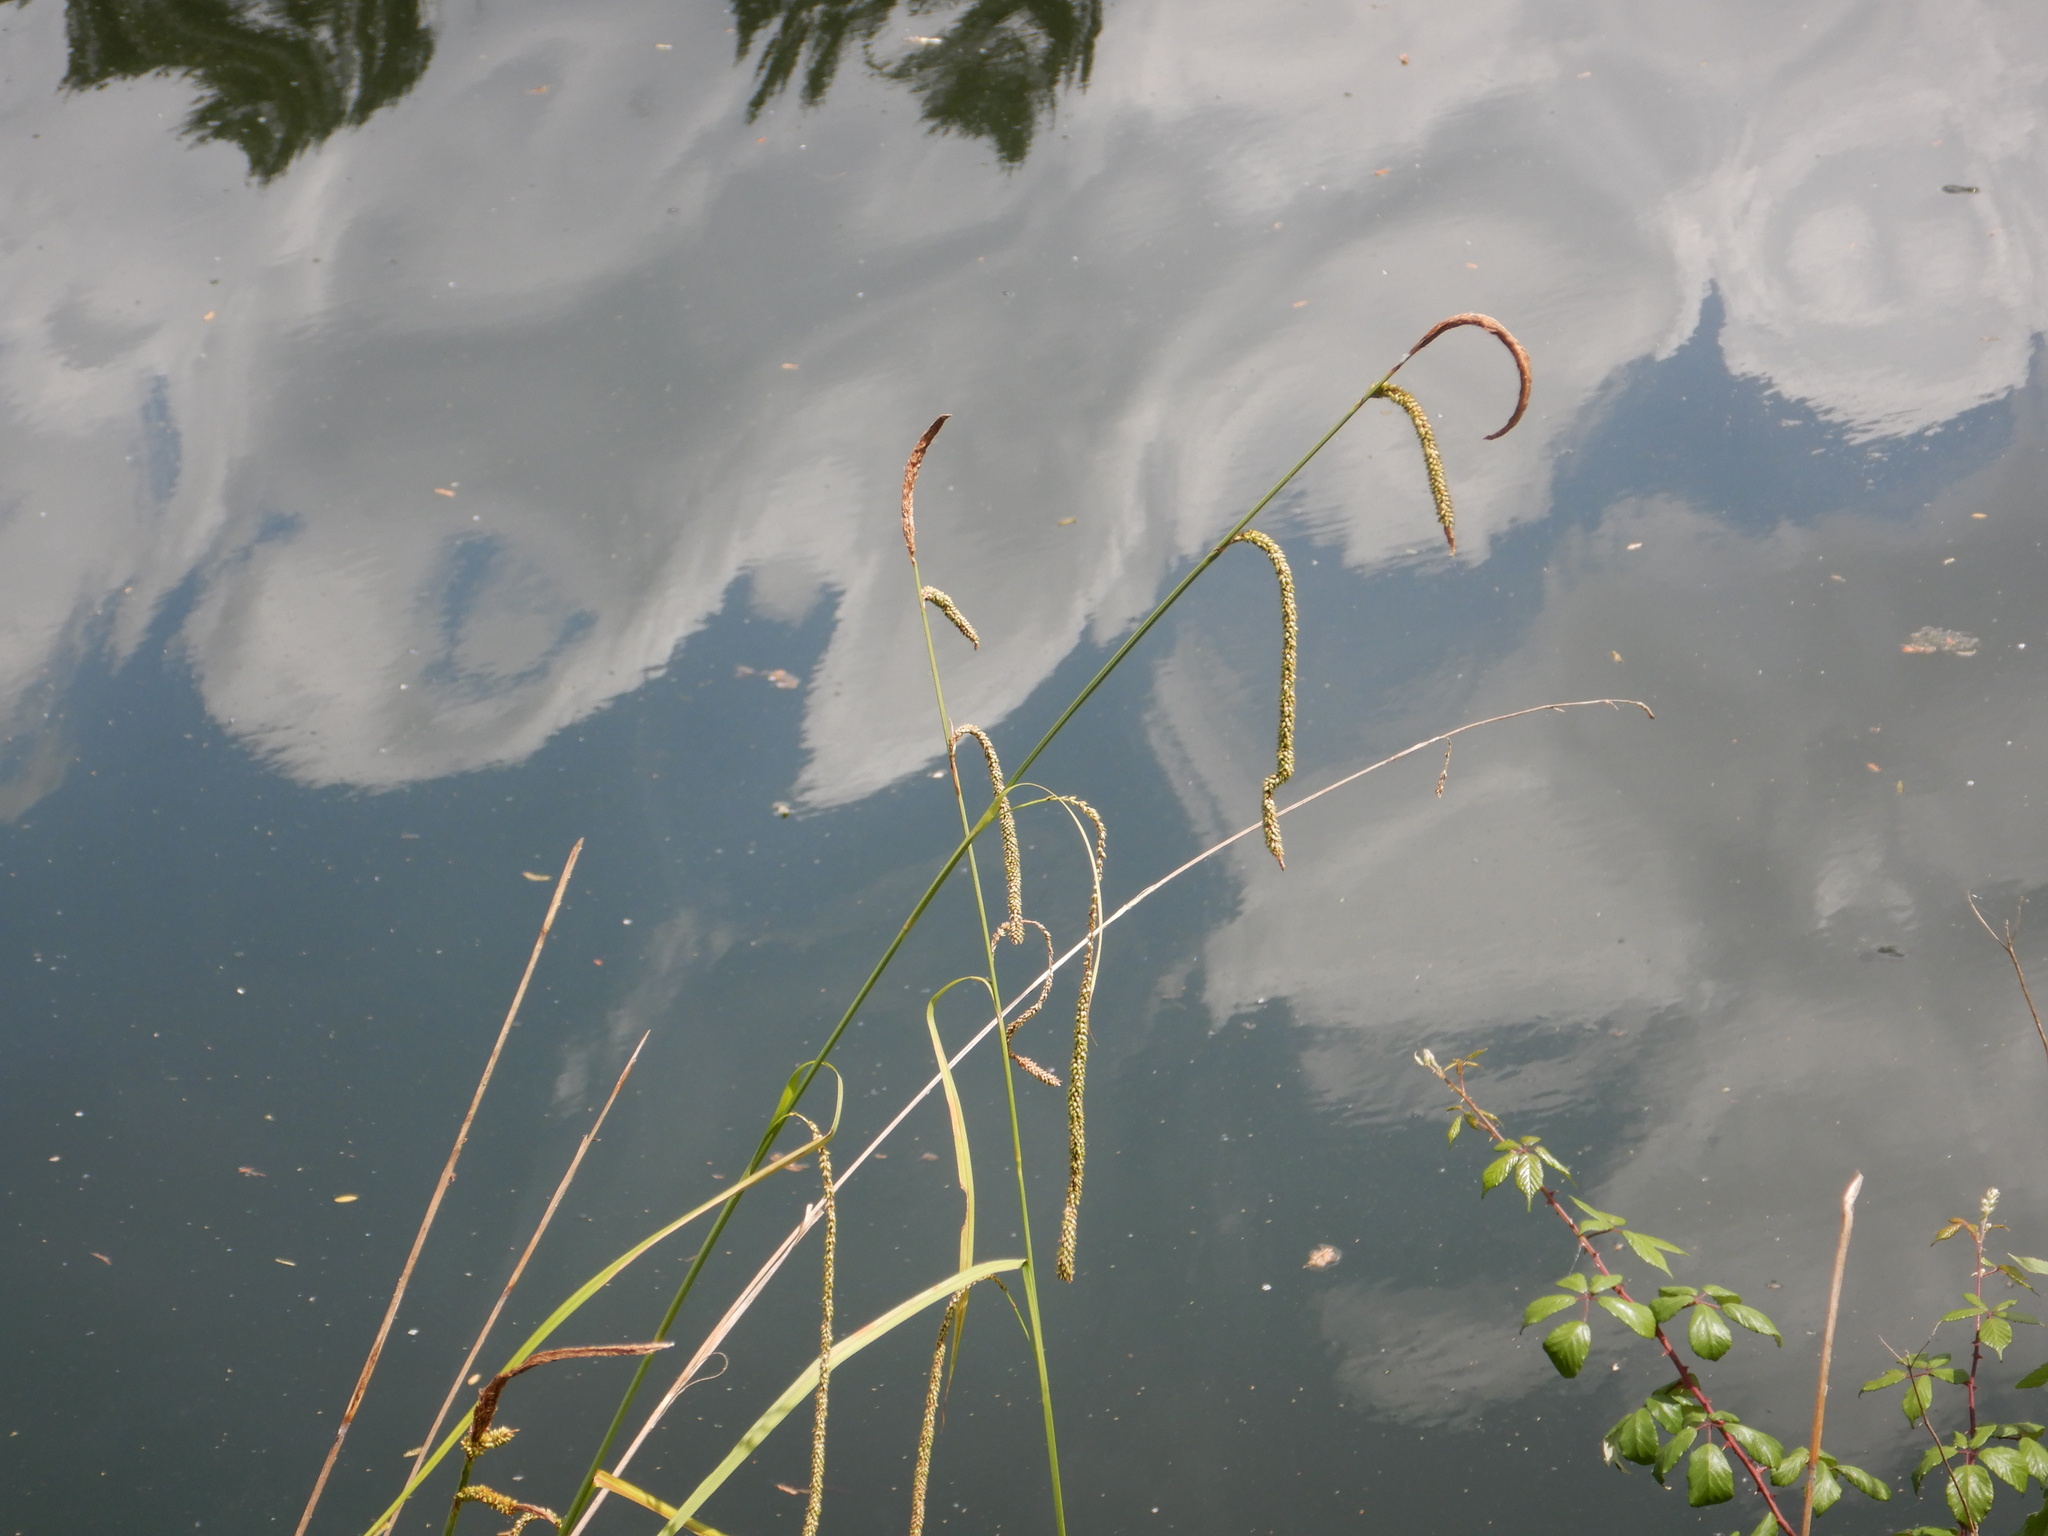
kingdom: Plantae
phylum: Tracheophyta
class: Liliopsida
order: Poales
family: Cyperaceae
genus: Carex
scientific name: Carex pendula
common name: Pendulous sedge
